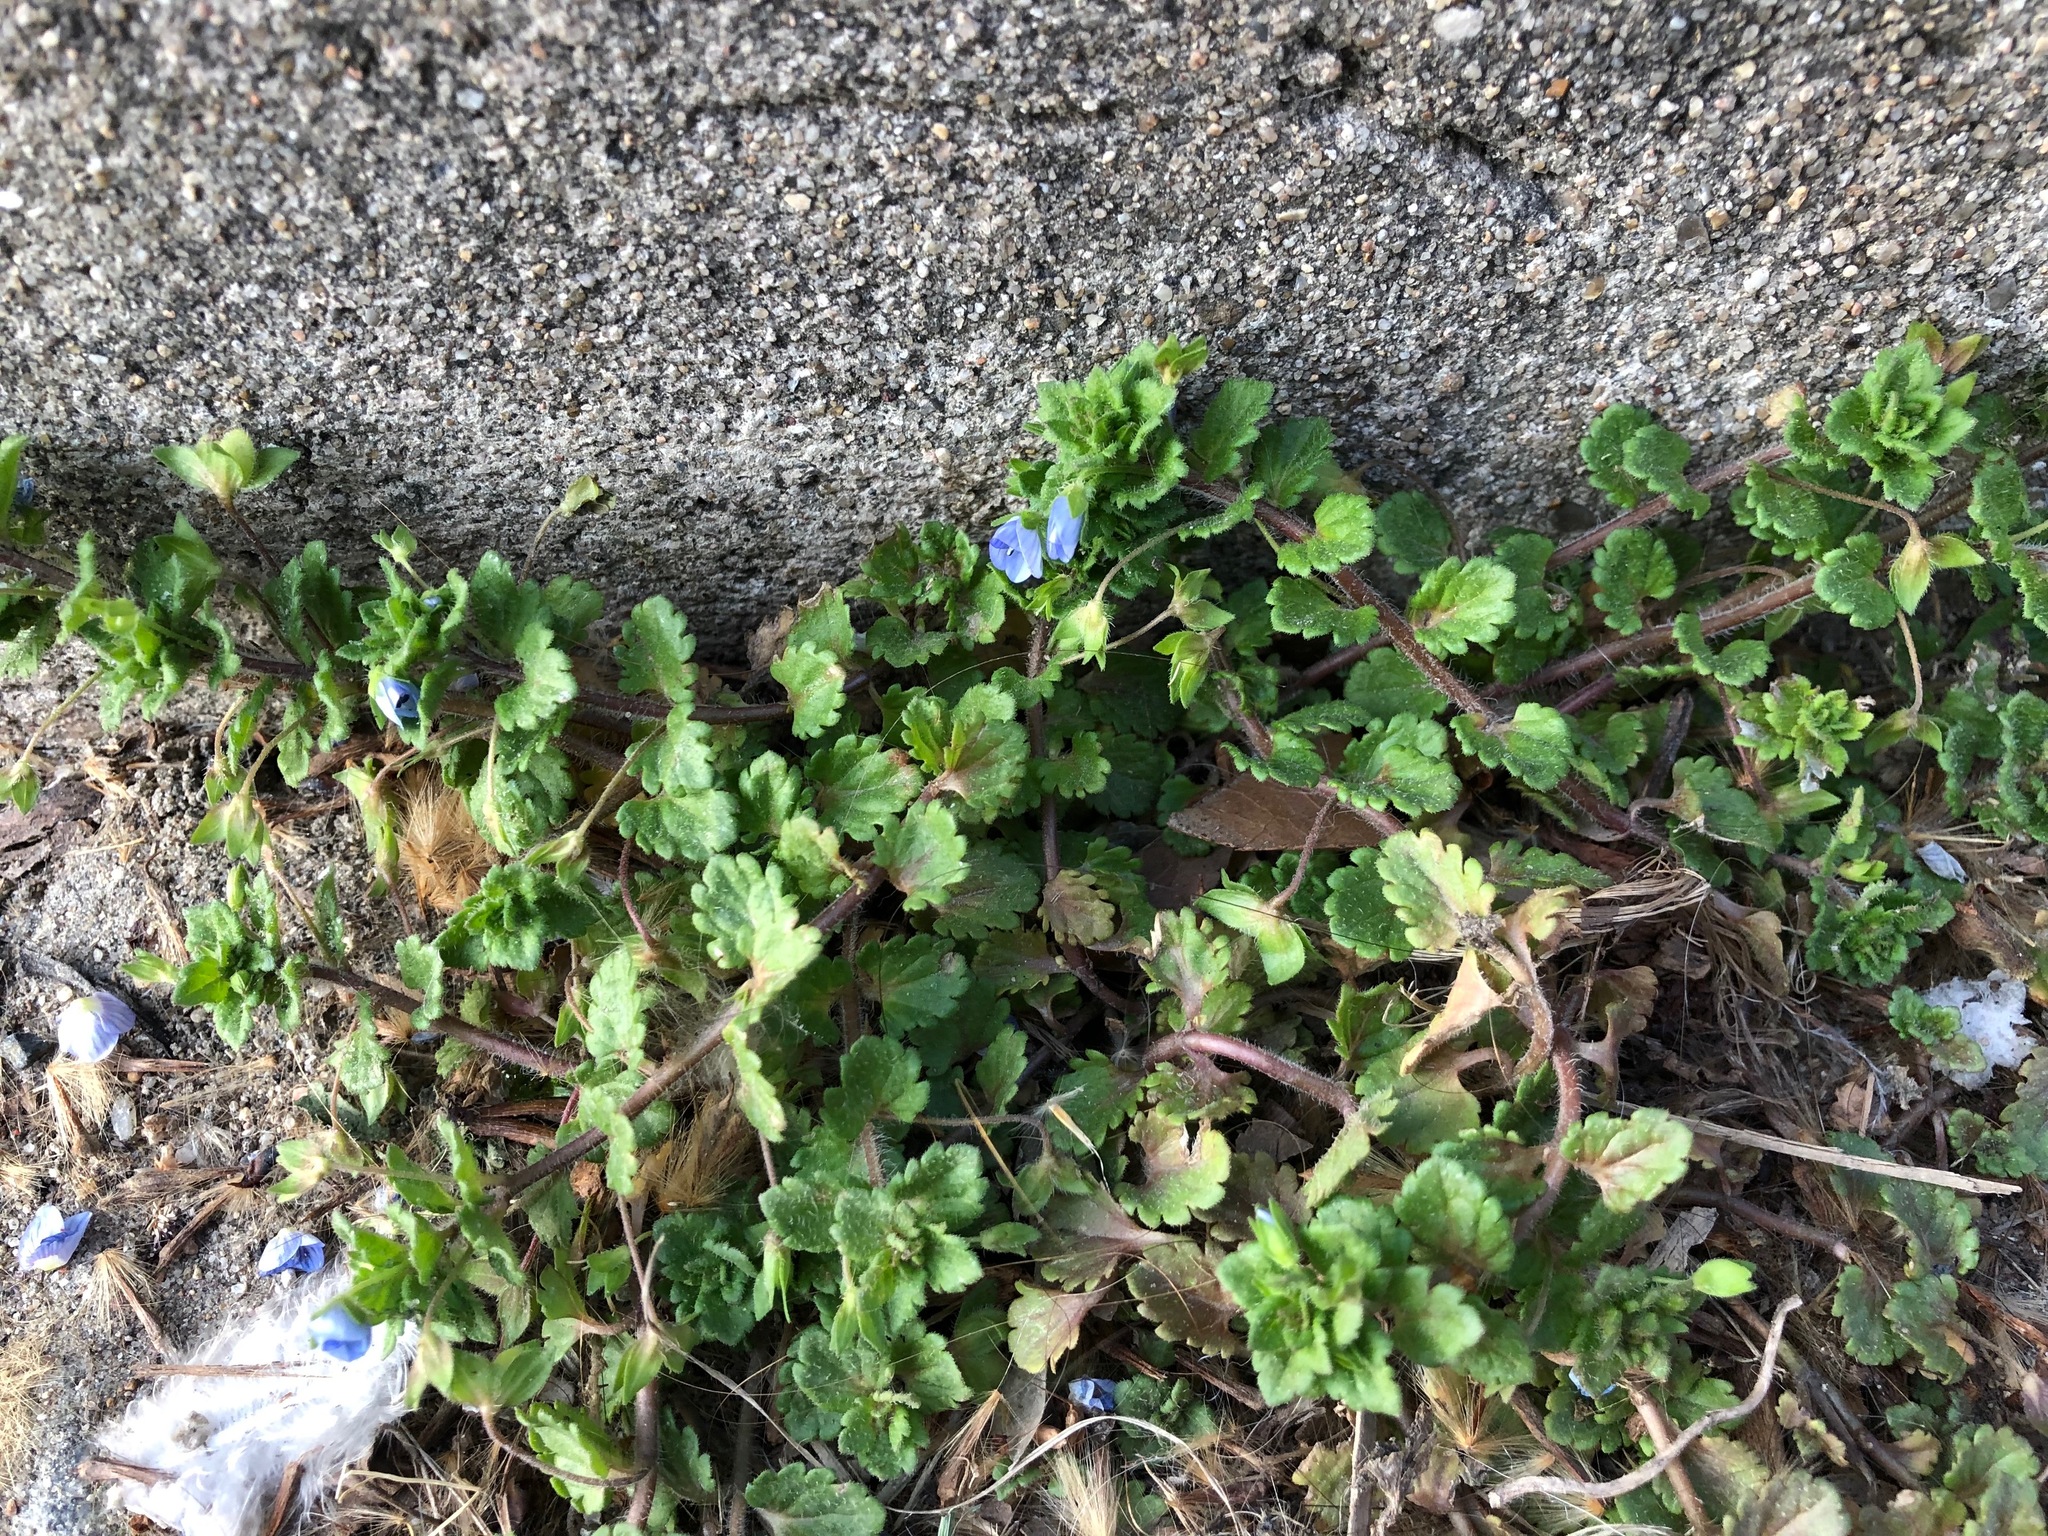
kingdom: Plantae
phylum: Tracheophyta
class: Magnoliopsida
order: Lamiales
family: Plantaginaceae
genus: Veronica
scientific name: Veronica persica
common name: Common field-speedwell
